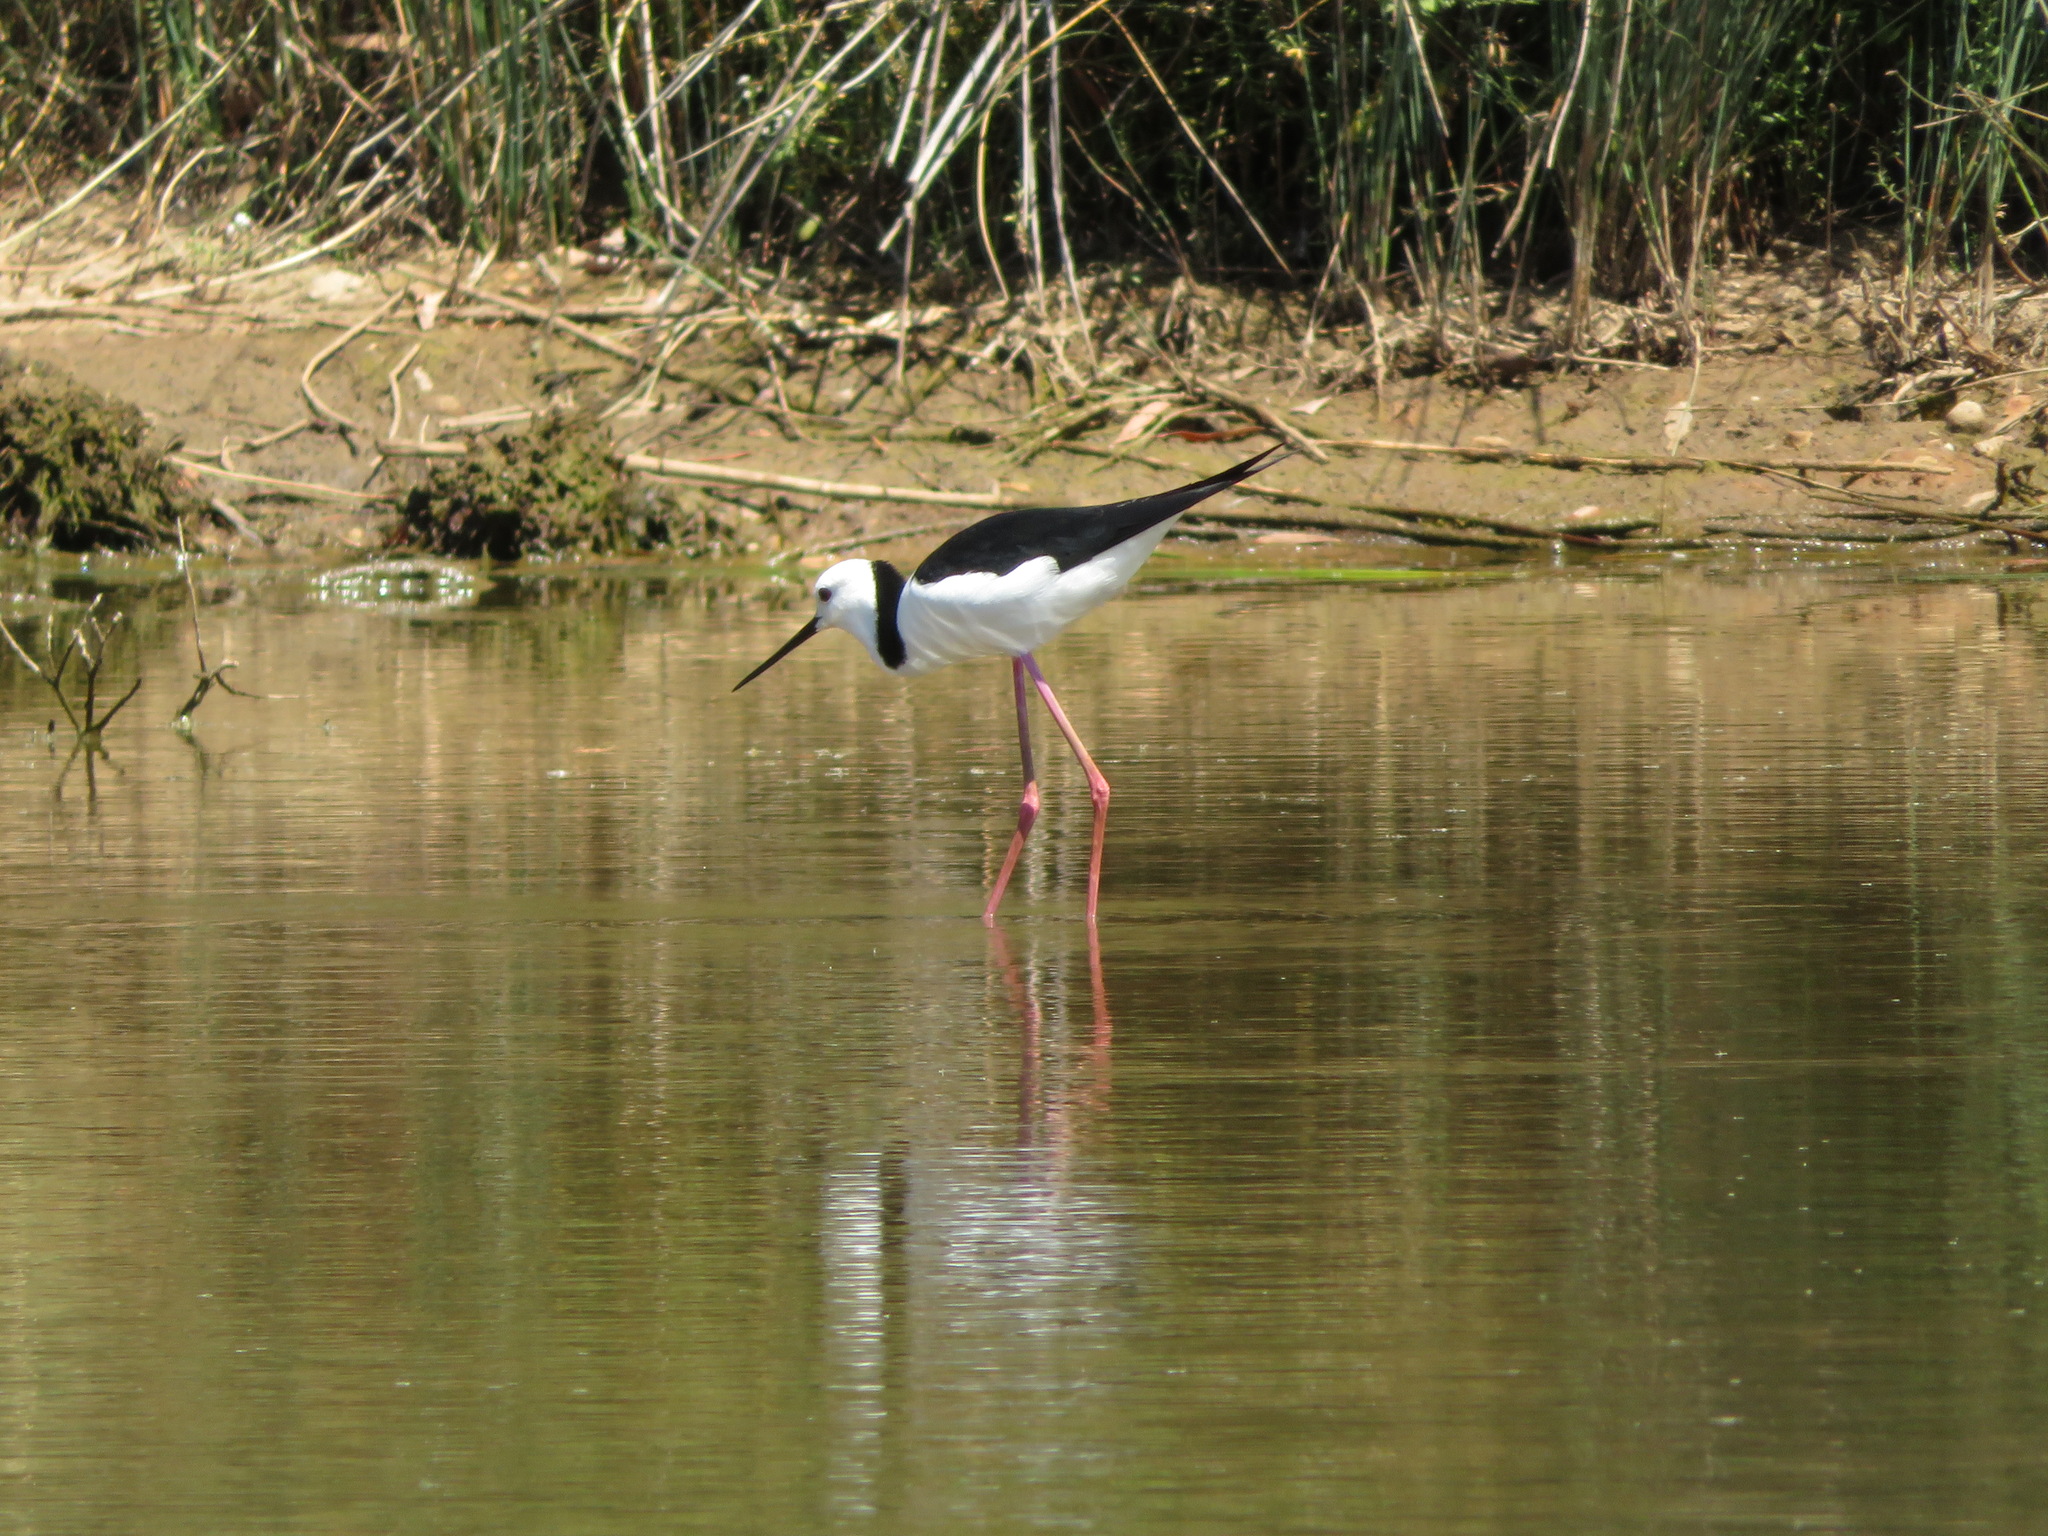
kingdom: Animalia
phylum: Chordata
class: Aves
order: Charadriiformes
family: Recurvirostridae
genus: Himantopus
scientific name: Himantopus leucocephalus
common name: White-headed stilt
